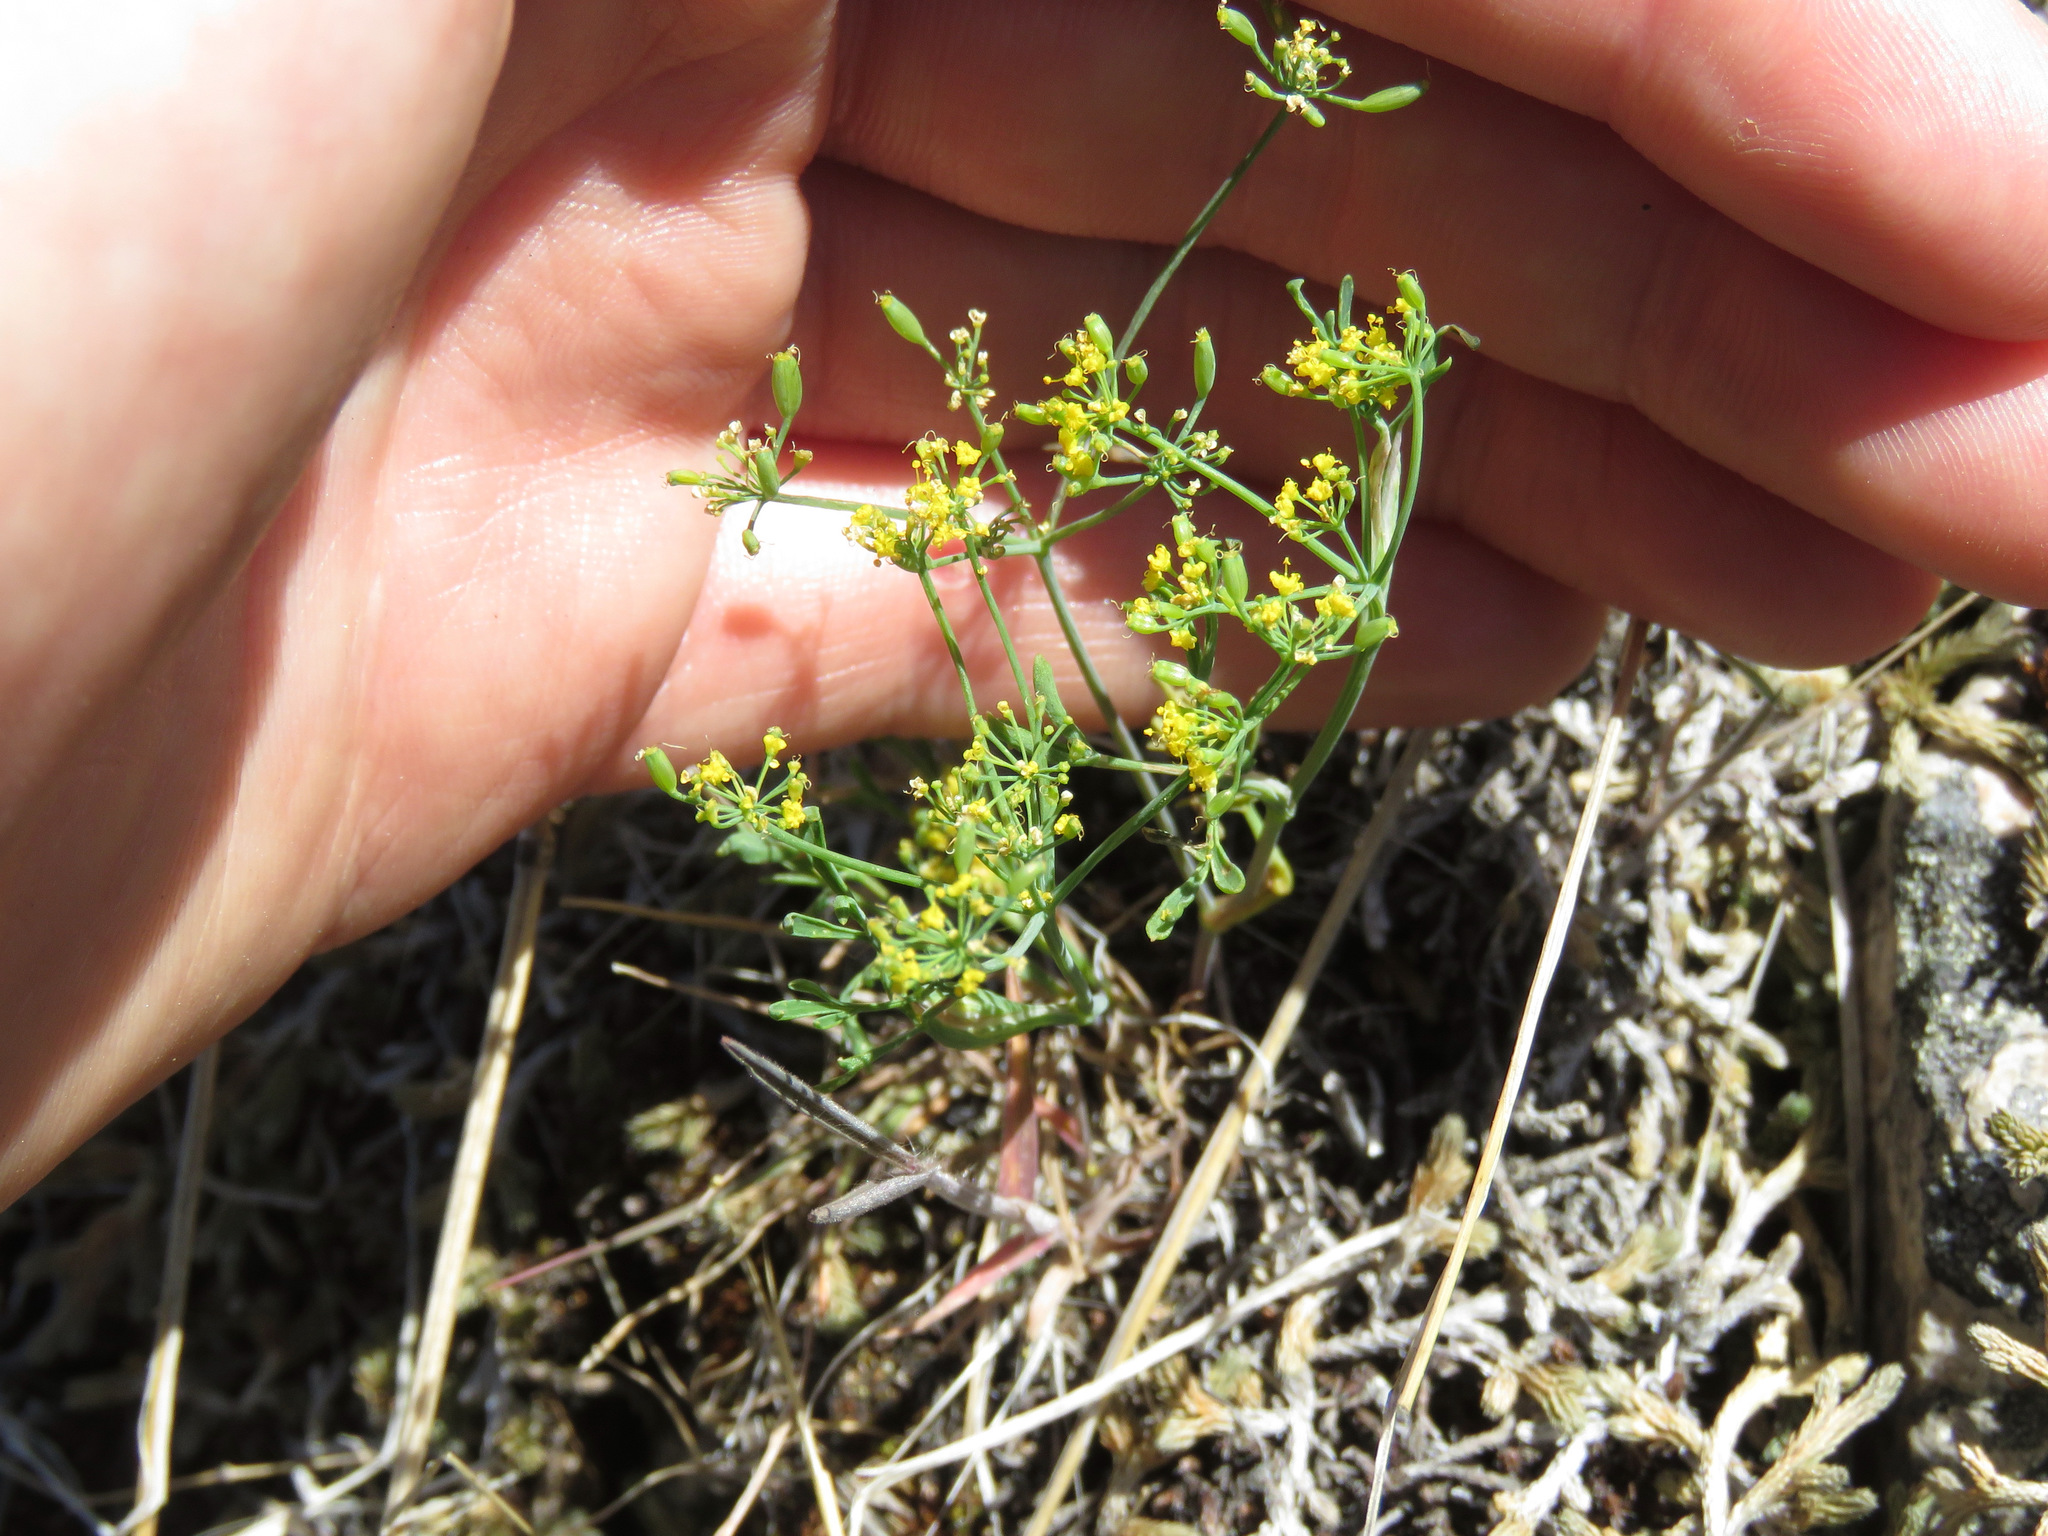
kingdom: Plantae
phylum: Tracheophyta
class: Magnoliopsida
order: Apiales
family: Apiaceae
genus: Lomatium
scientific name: Lomatium ambiguum
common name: Lacy lomatium
